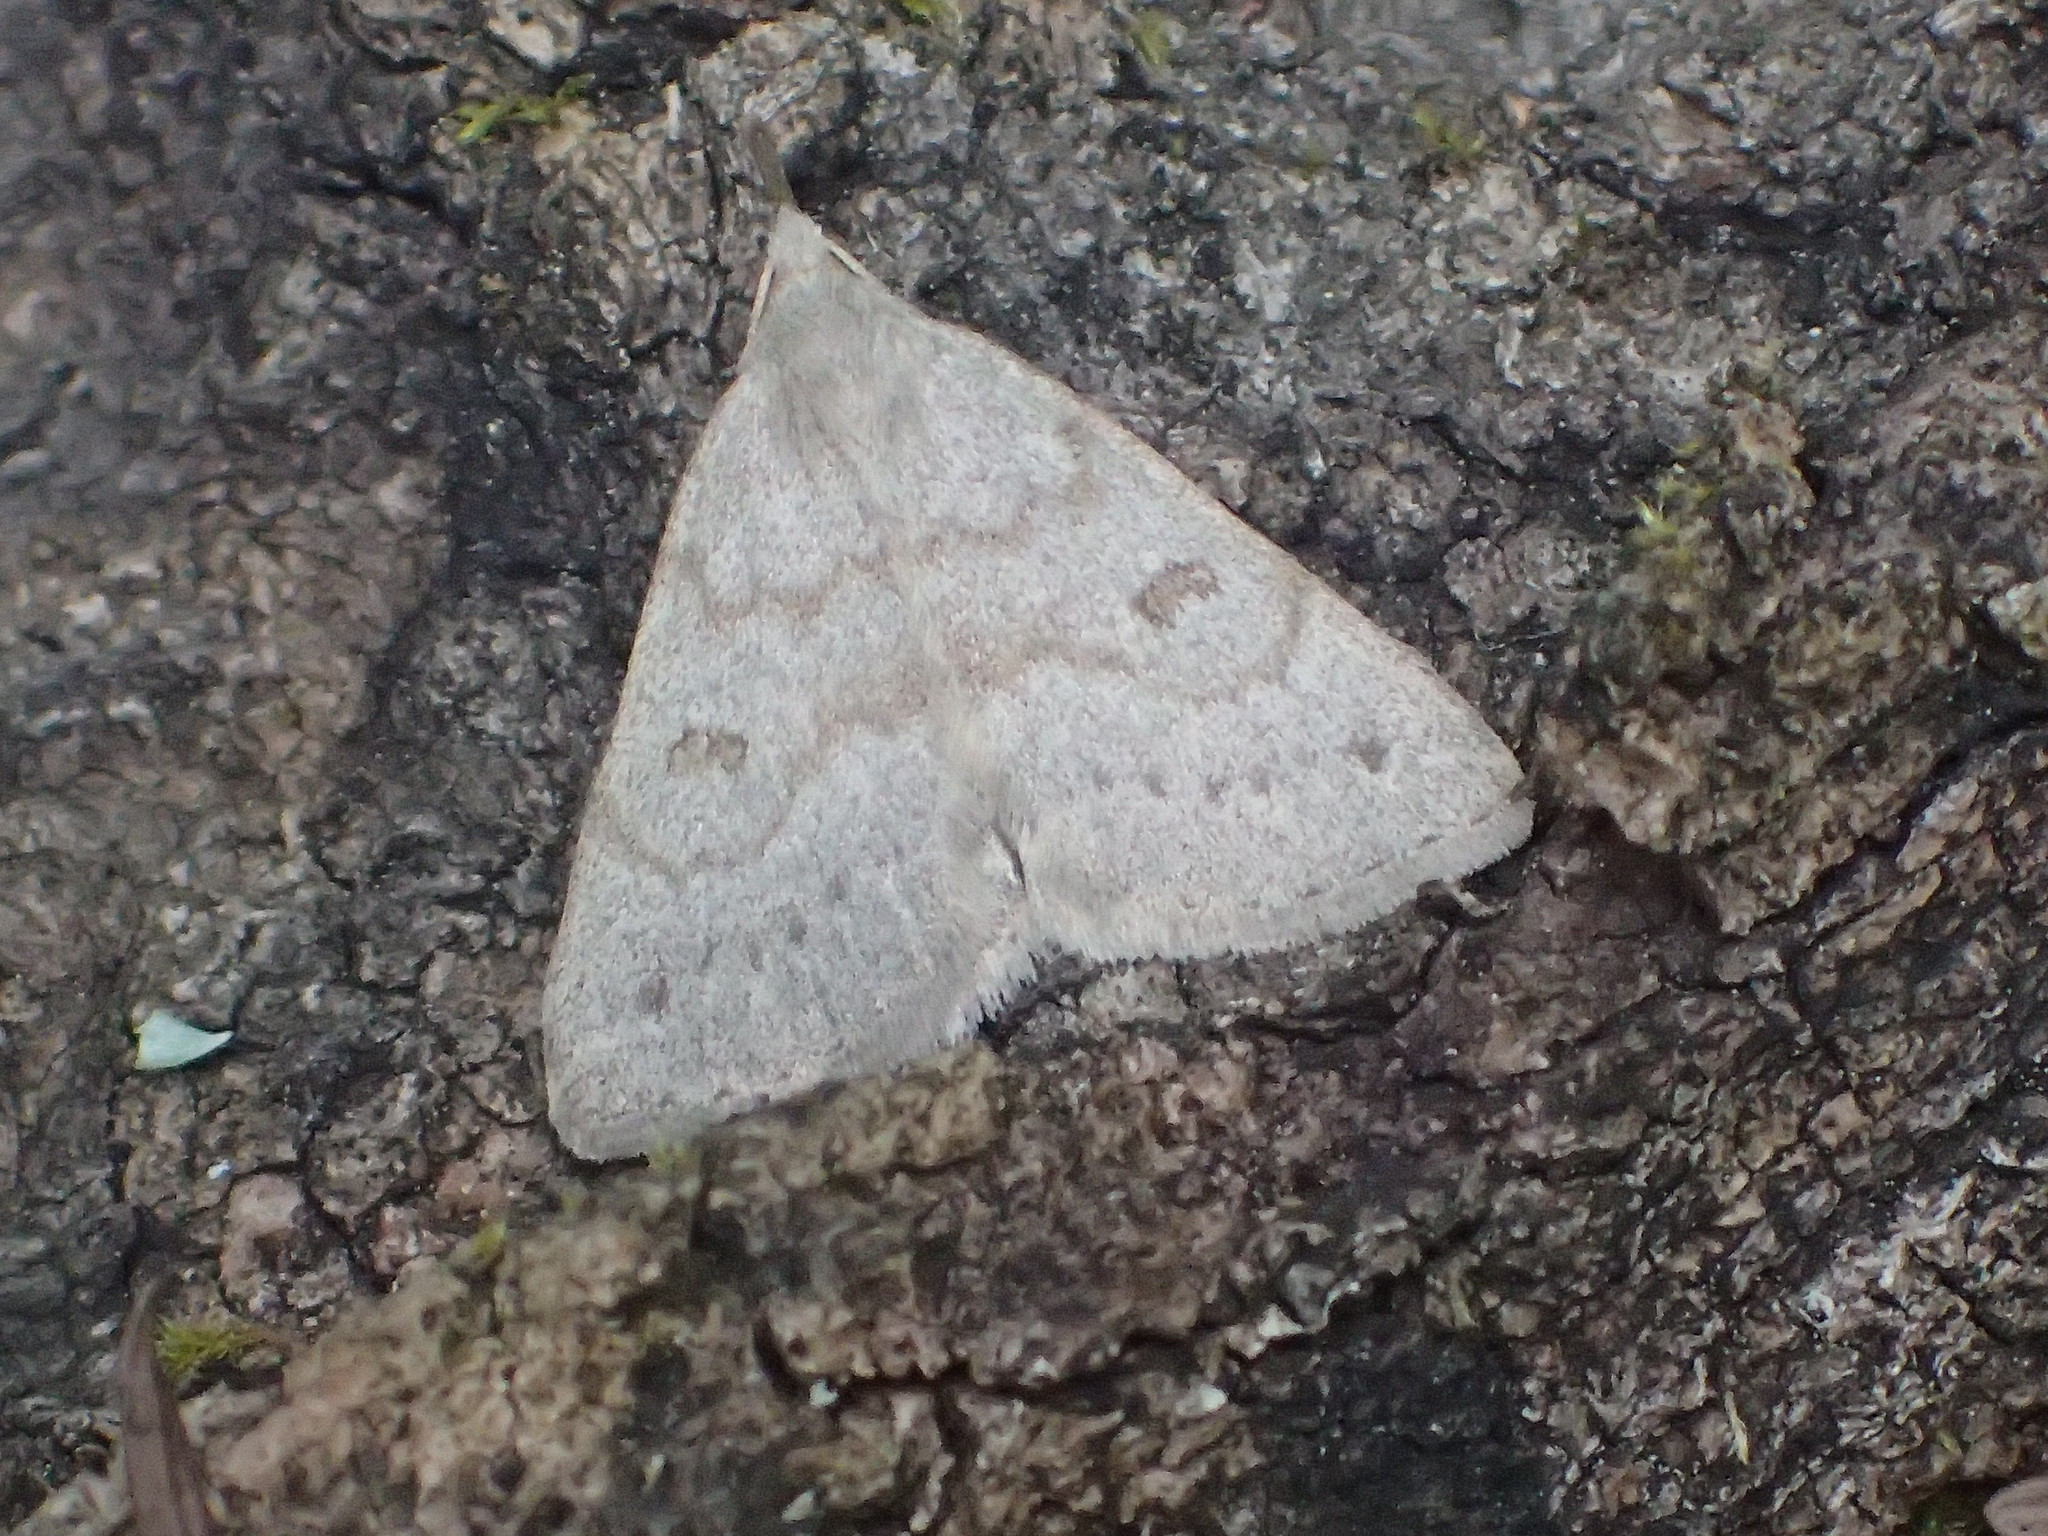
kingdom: Animalia
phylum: Arthropoda
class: Insecta
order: Lepidoptera
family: Erebidae
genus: Macrochilo
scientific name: Macrochilo morbidalis
